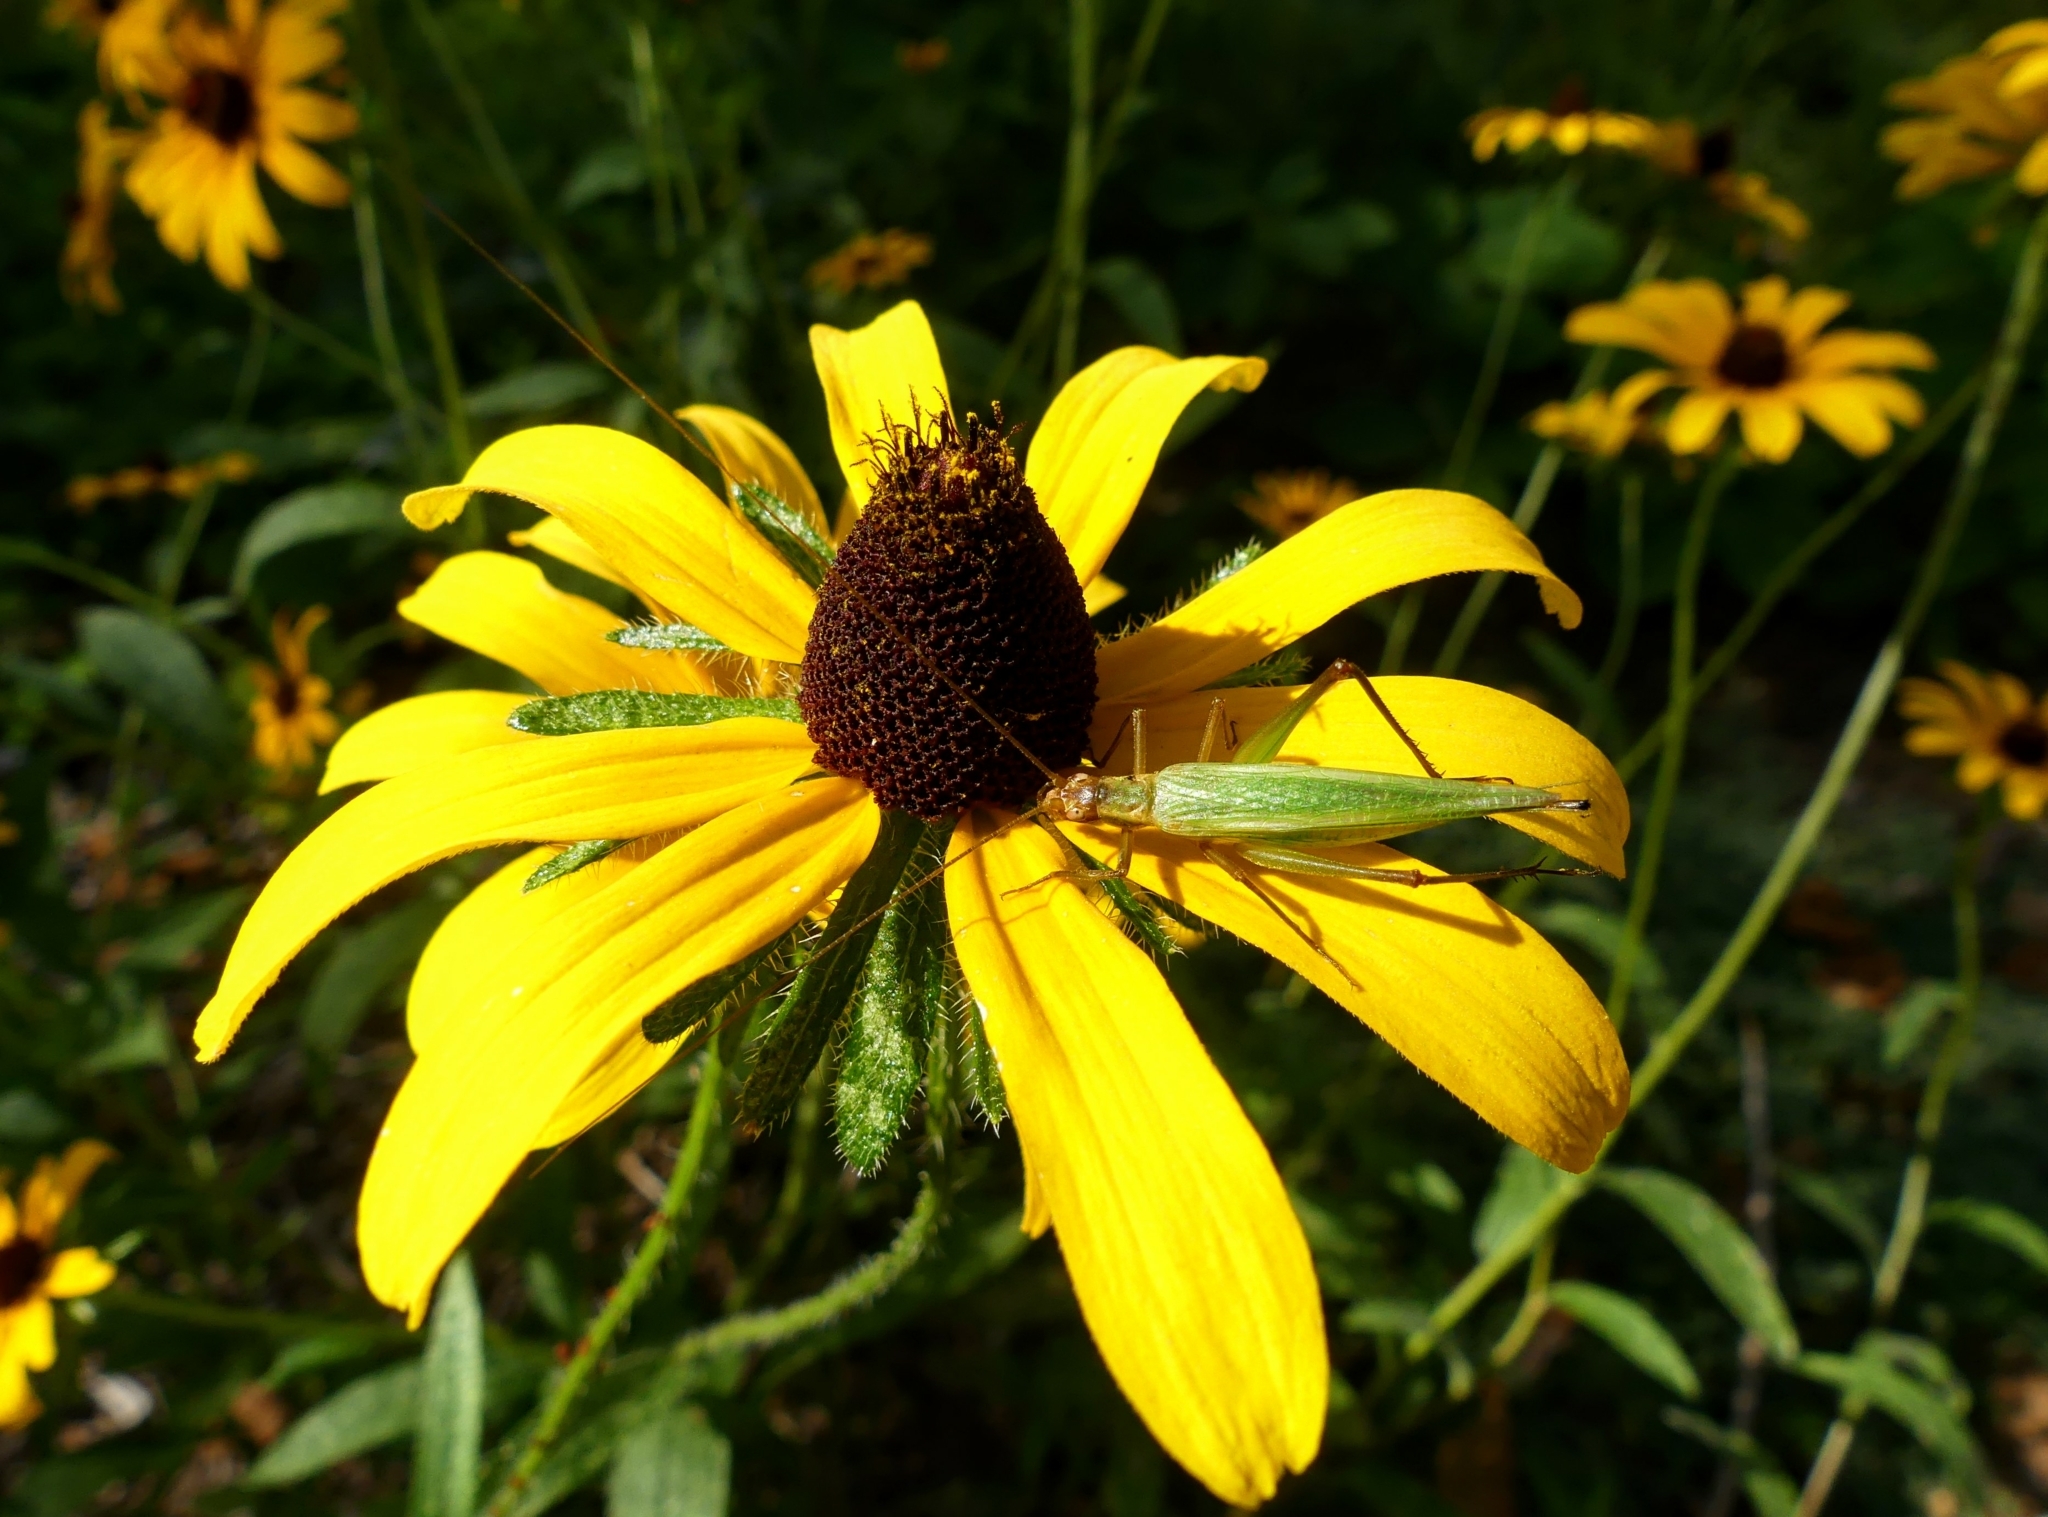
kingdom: Animalia
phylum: Arthropoda
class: Insecta
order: Orthoptera
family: Gryllidae
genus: Oecanthus
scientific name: Oecanthus pini
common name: Pine tree cricket
